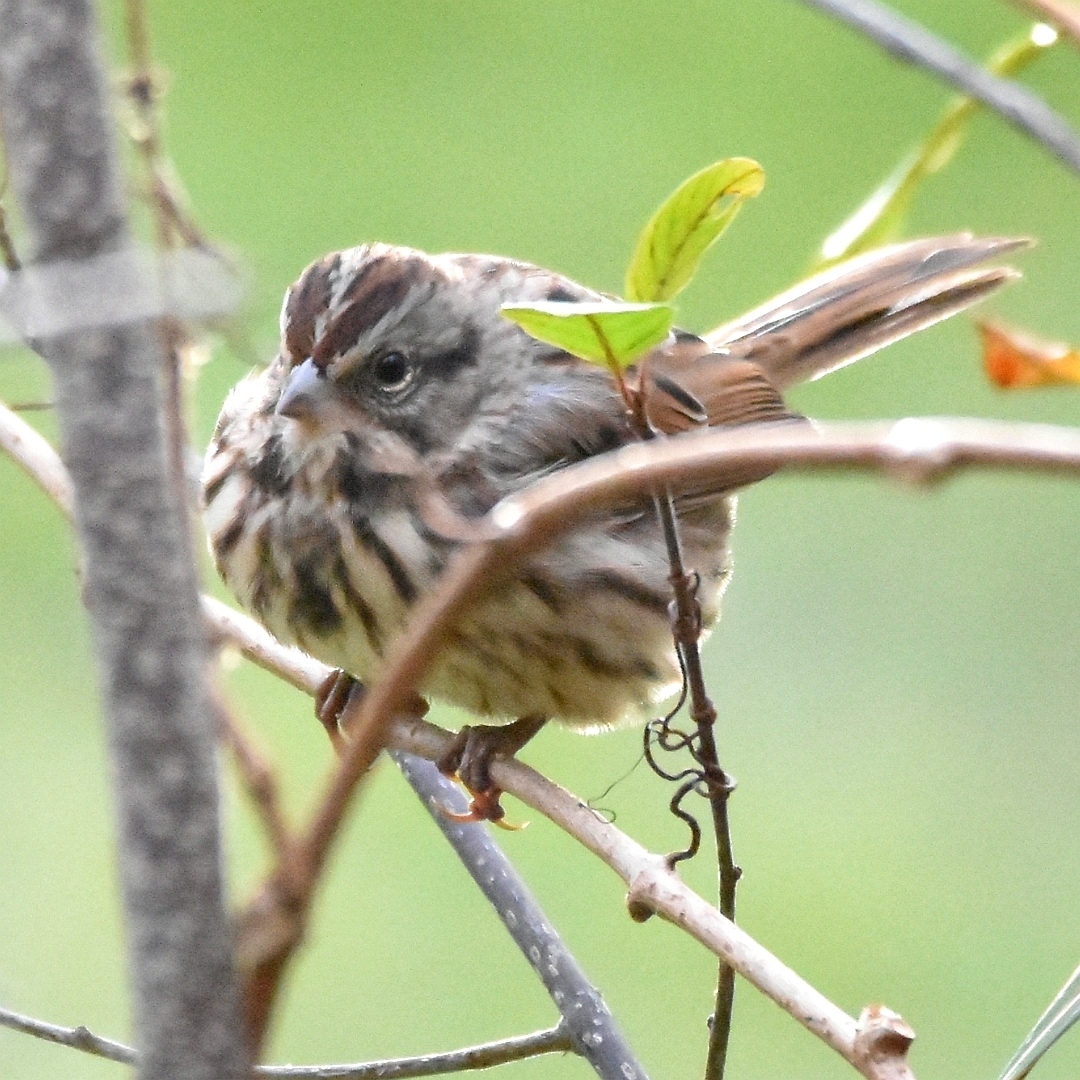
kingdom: Animalia
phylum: Chordata
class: Aves
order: Passeriformes
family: Passerellidae
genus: Melospiza
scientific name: Melospiza melodia
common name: Song sparrow
